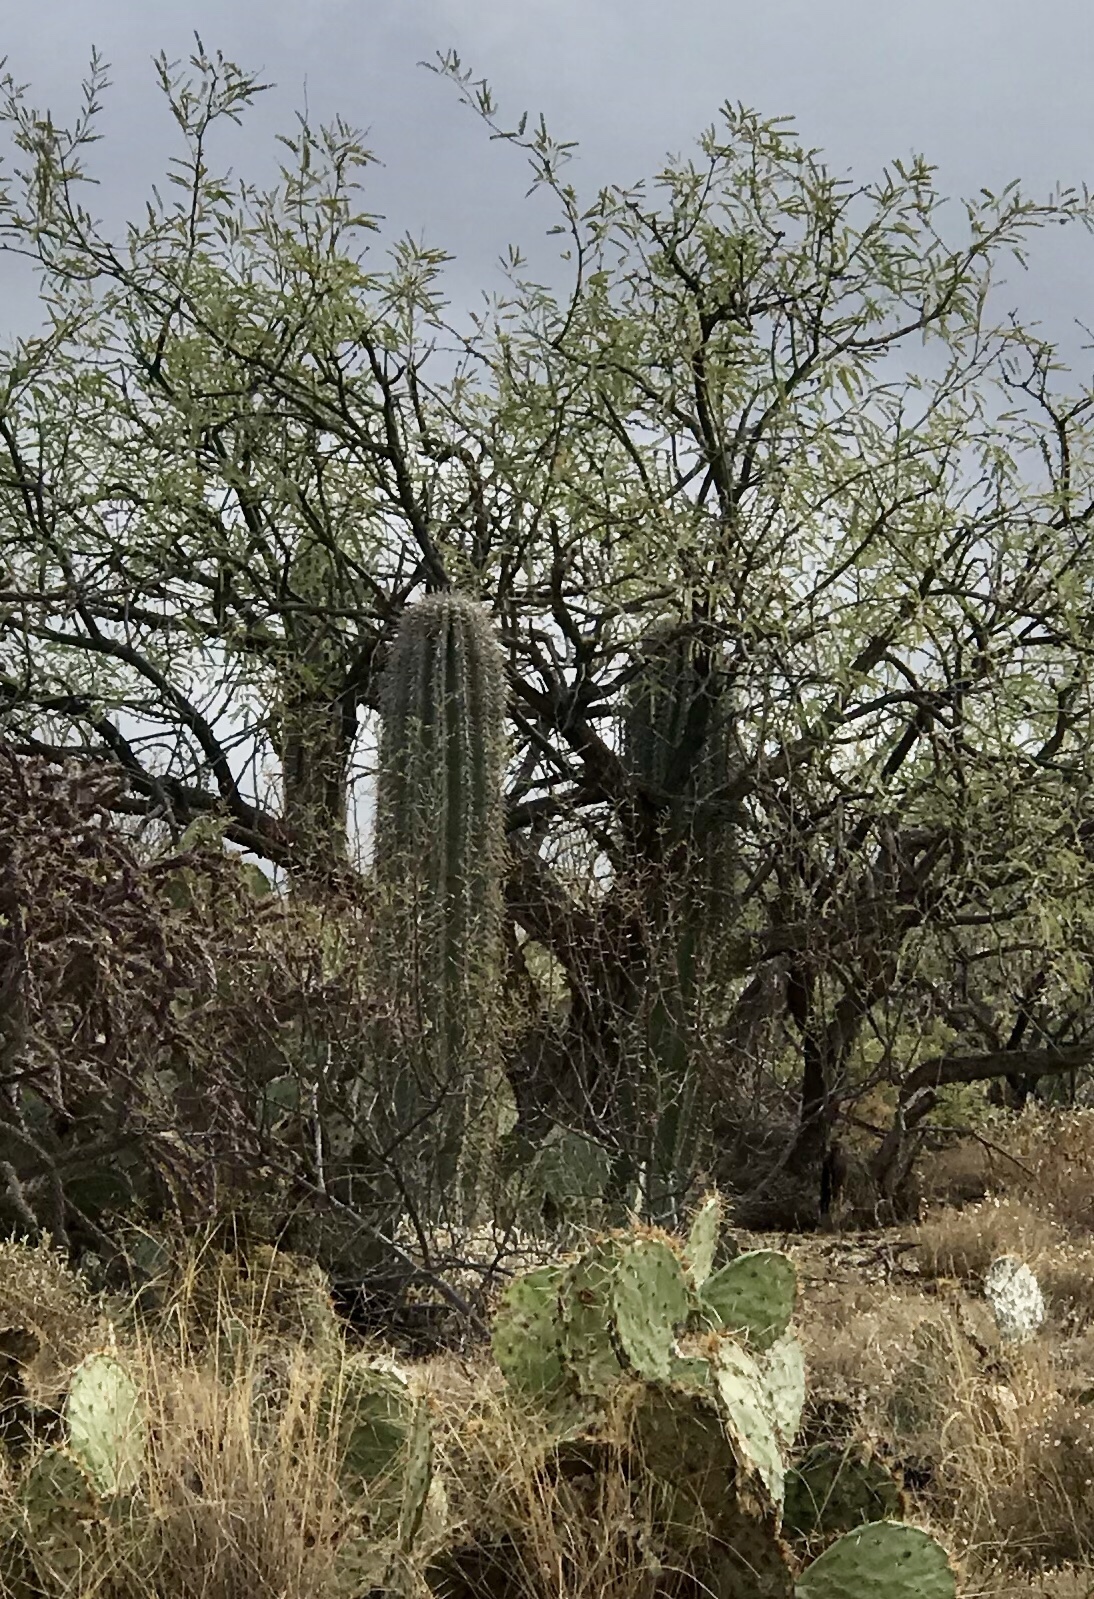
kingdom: Plantae
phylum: Tracheophyta
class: Magnoliopsida
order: Caryophyllales
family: Cactaceae
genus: Carnegiea
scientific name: Carnegiea gigantea
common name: Saguaro
